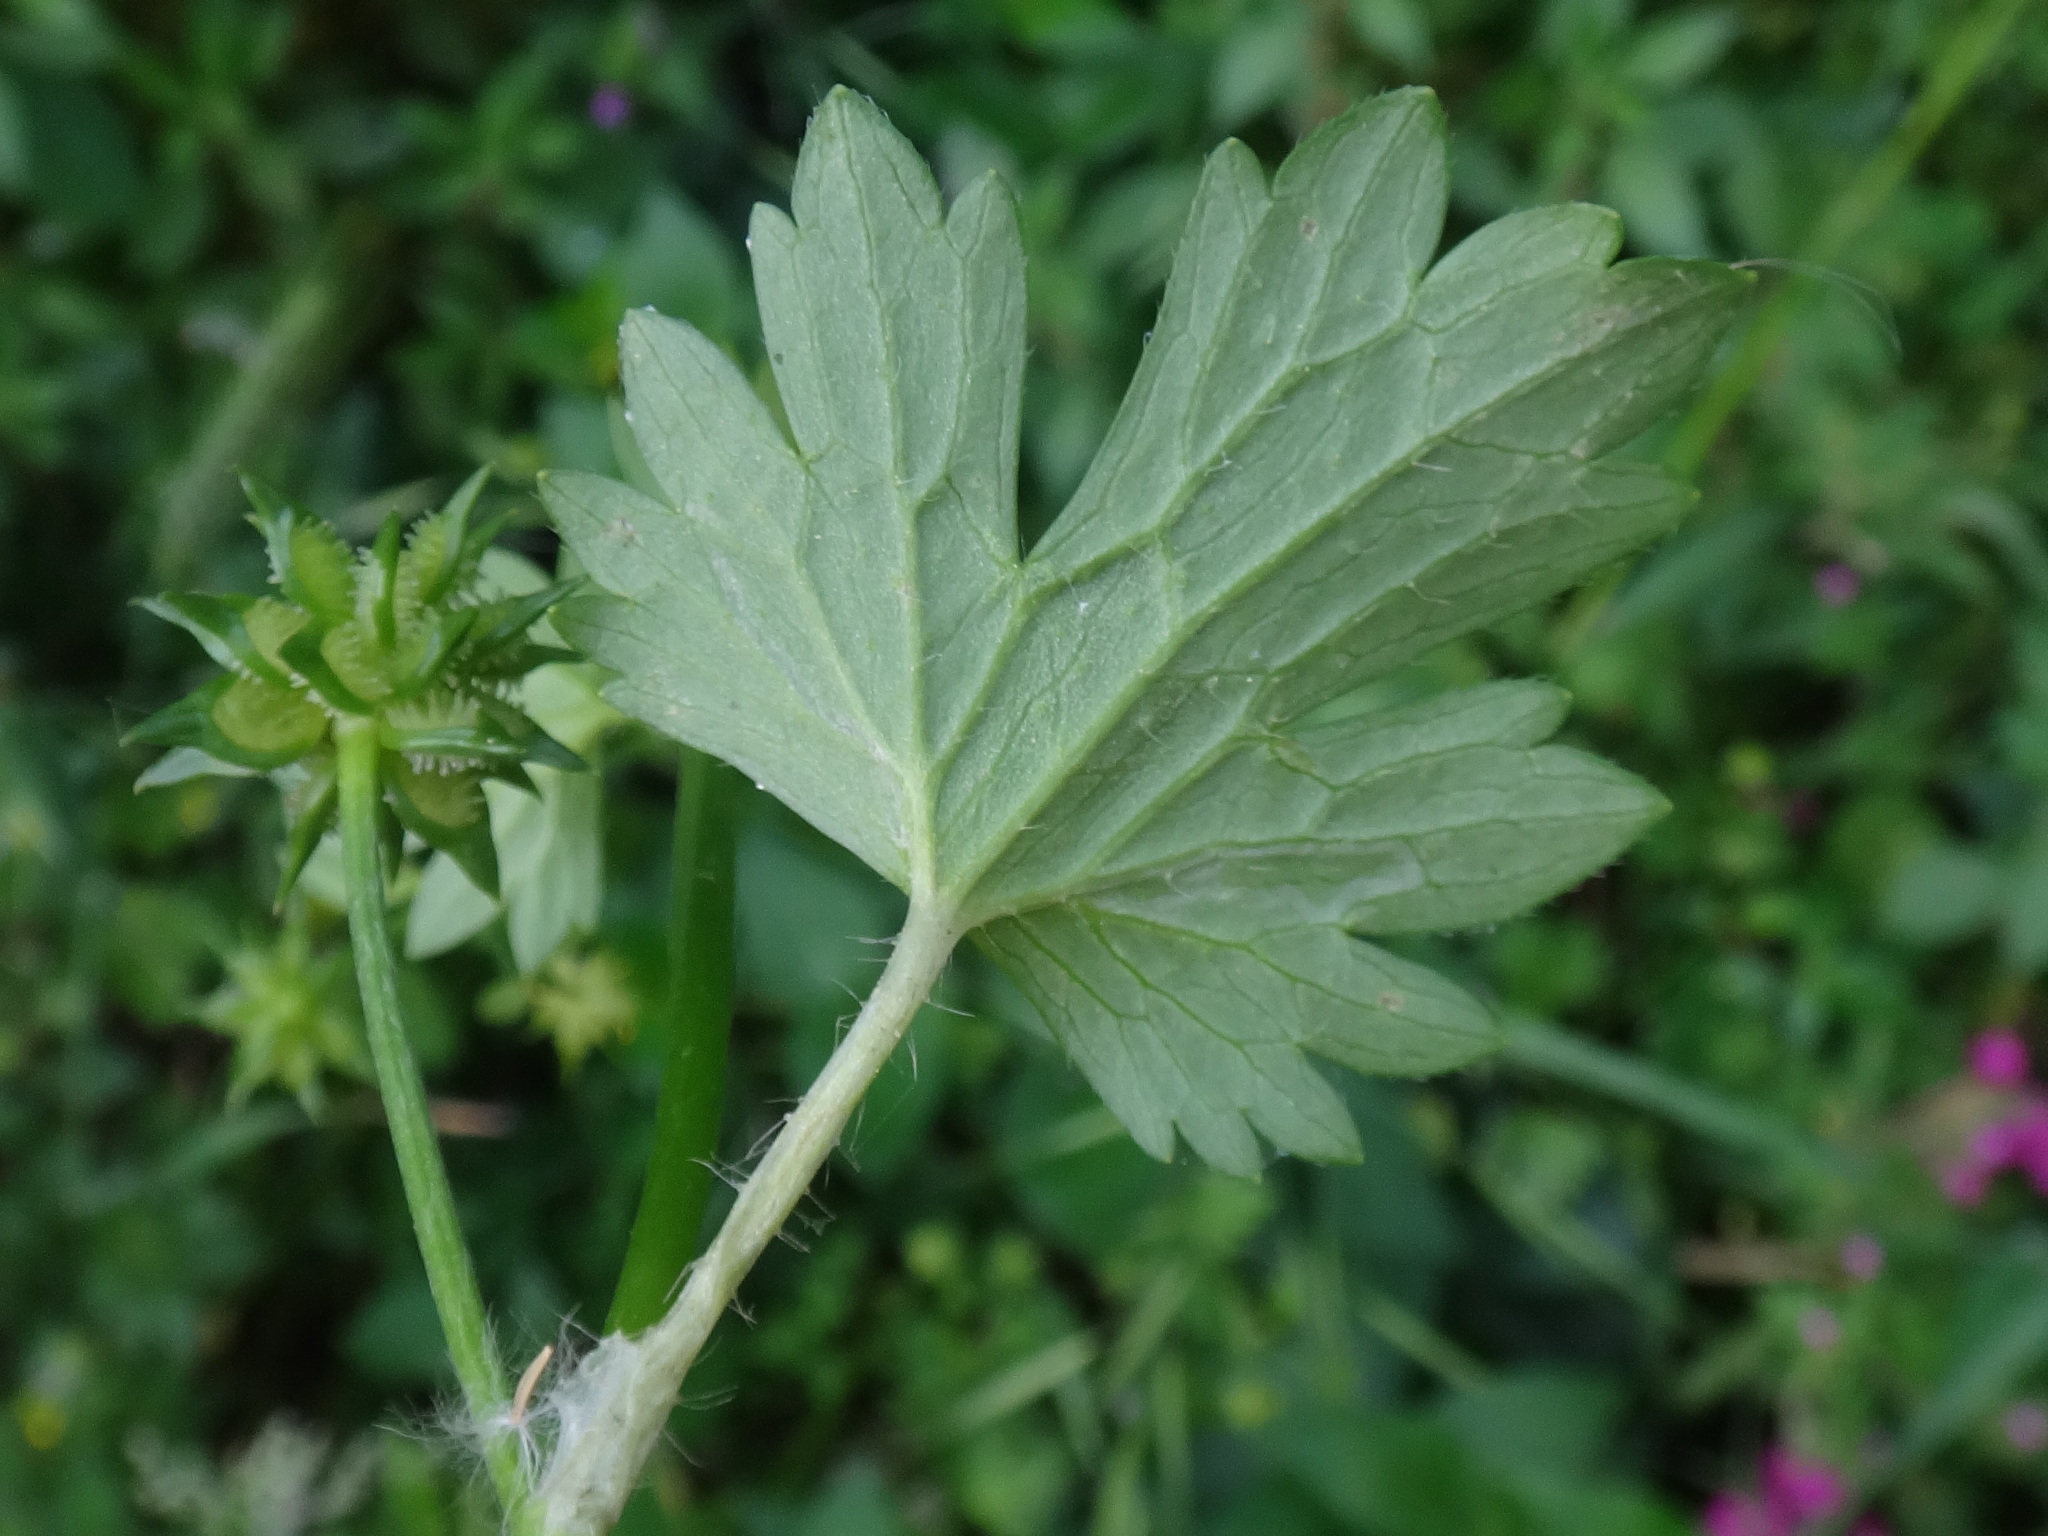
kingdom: Plantae
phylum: Tracheophyta
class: Magnoliopsida
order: Ranunculales
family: Ranunculaceae
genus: Ranunculus
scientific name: Ranunculus muricatus
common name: Rough-fruited buttercup
